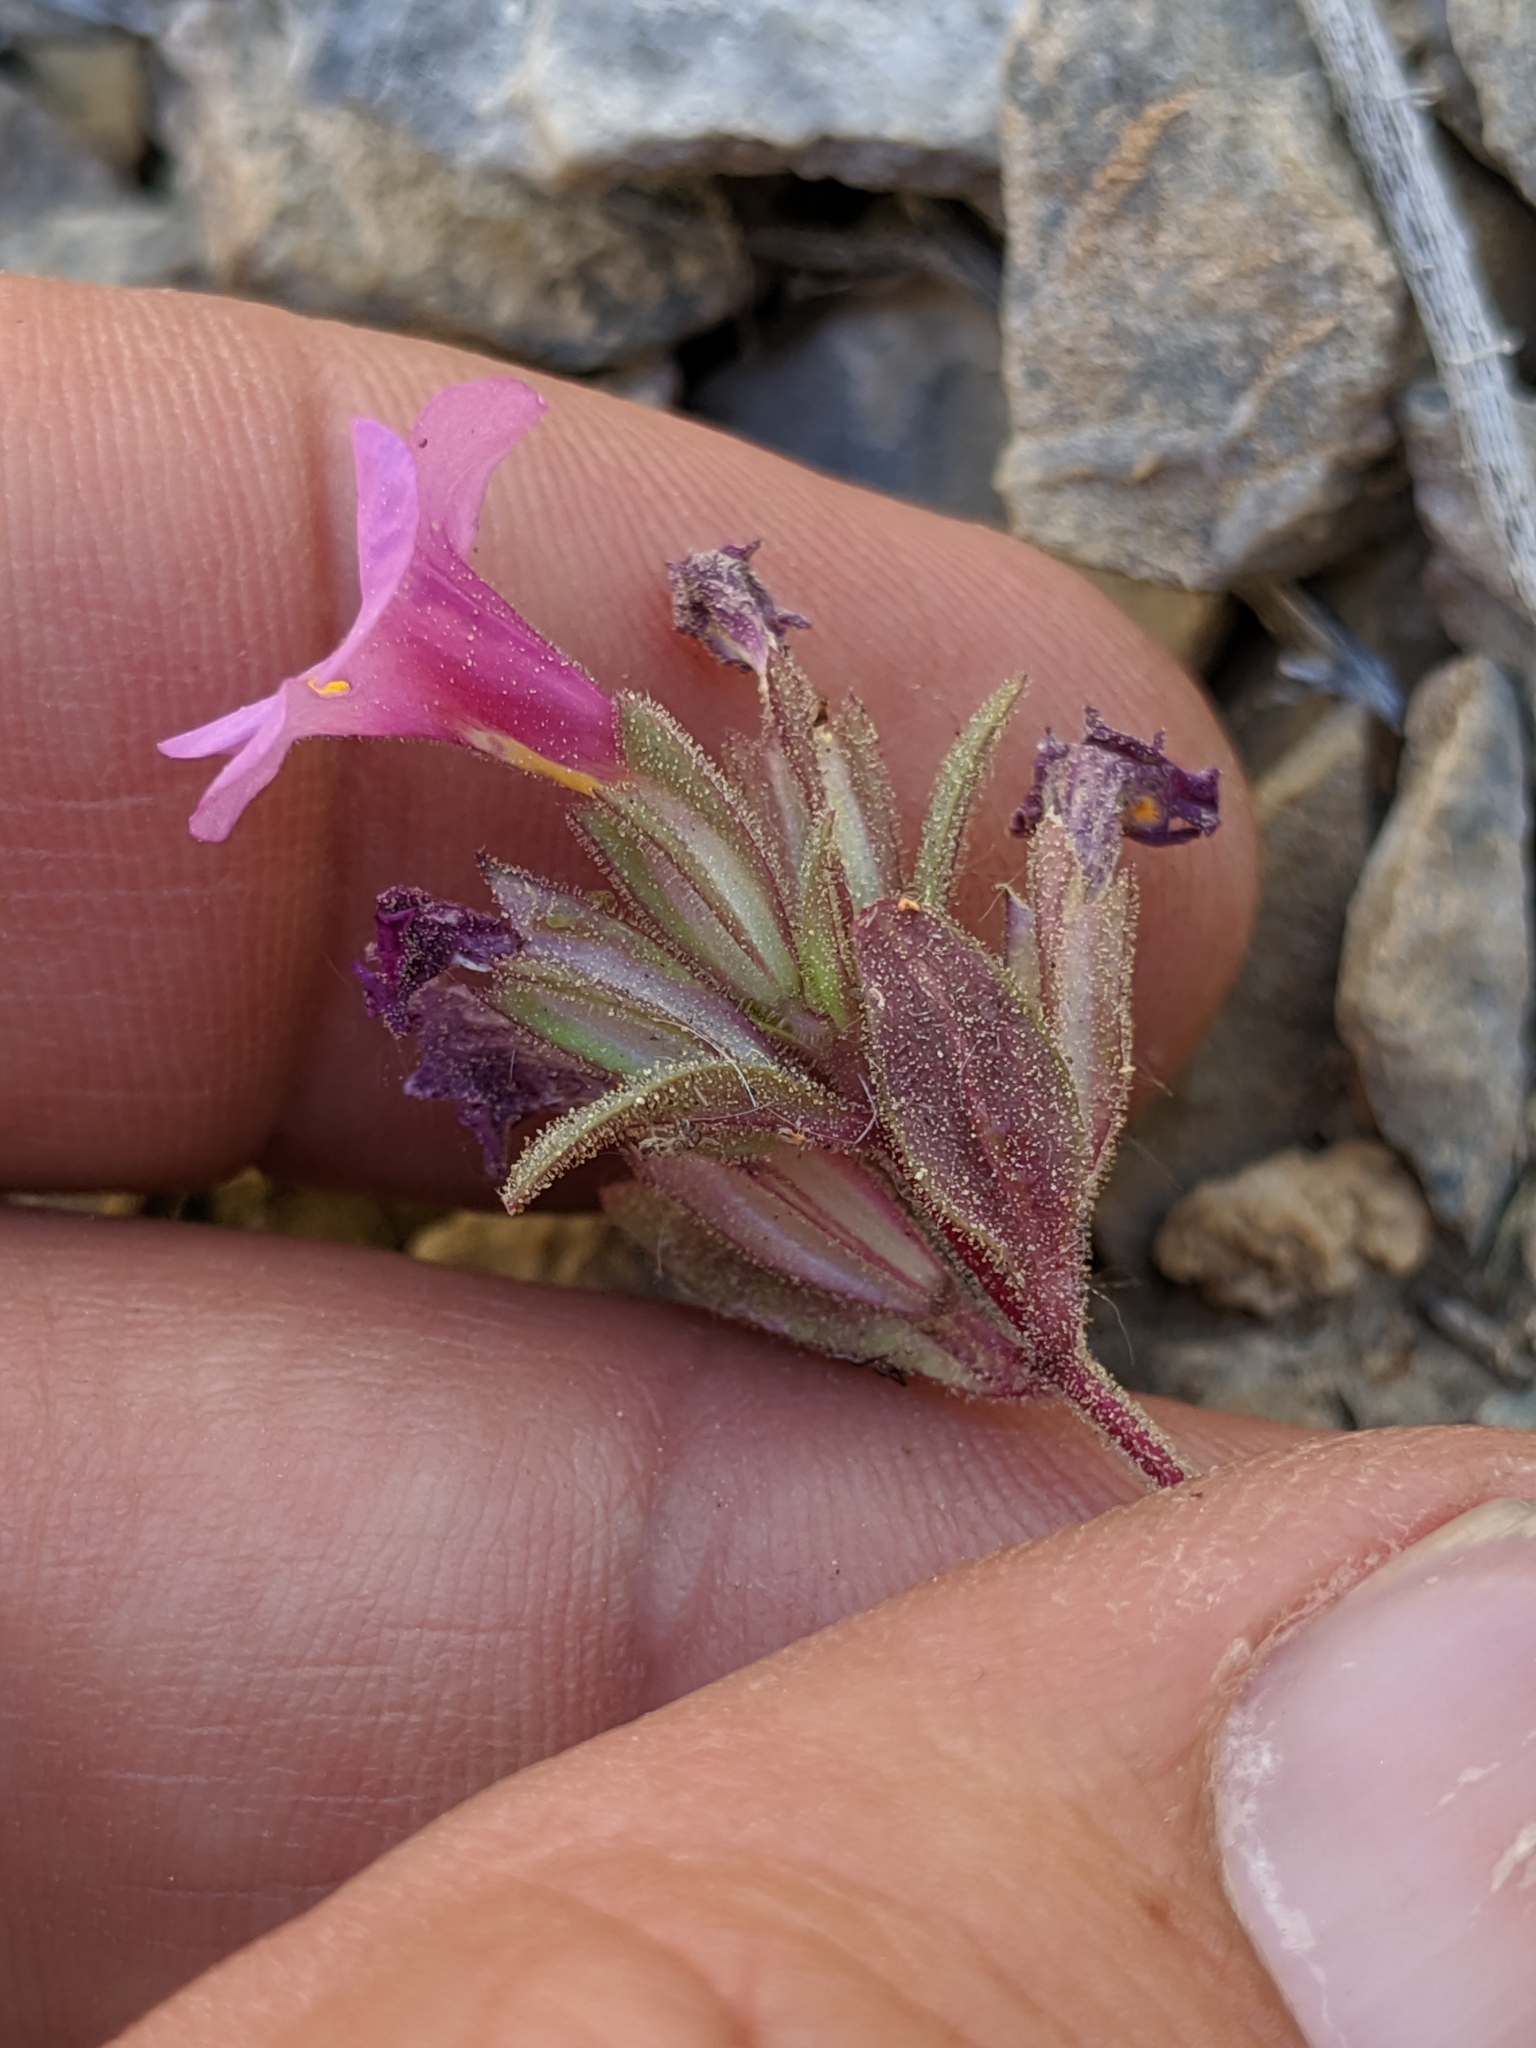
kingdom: Plantae
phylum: Tracheophyta
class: Magnoliopsida
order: Lamiales
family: Phrymaceae
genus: Diplacus
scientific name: Diplacus parryi
